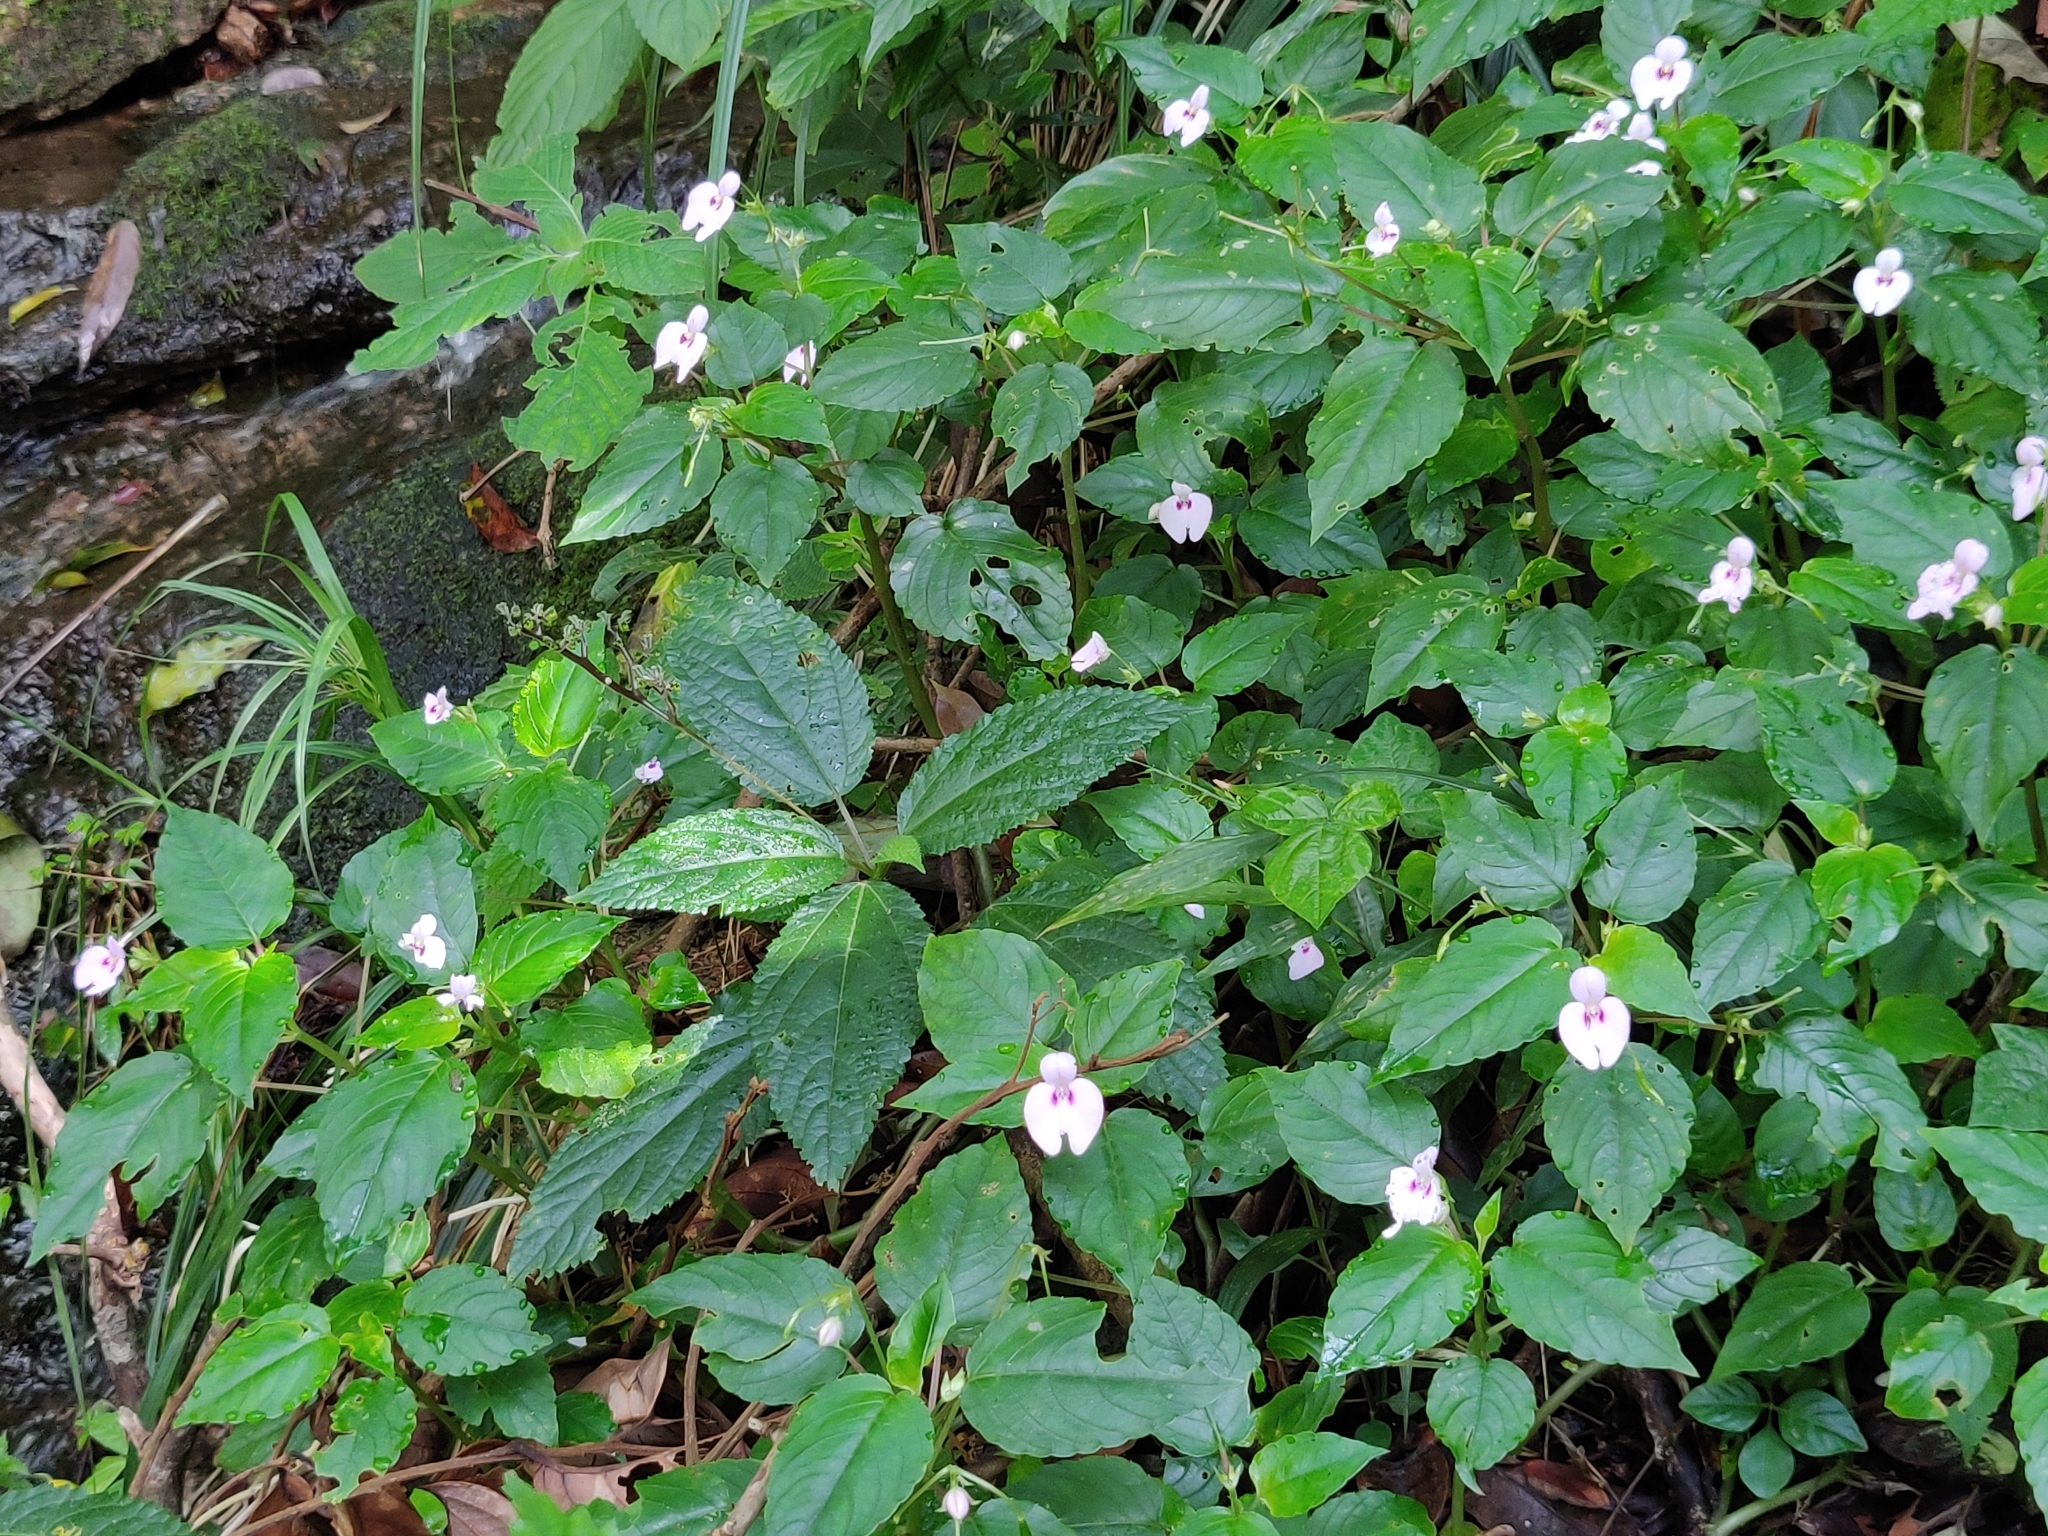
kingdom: Plantae
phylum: Tracheophyta
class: Magnoliopsida
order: Ericales
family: Balsaminaceae
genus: Impatiens
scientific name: Impatiens elegans
